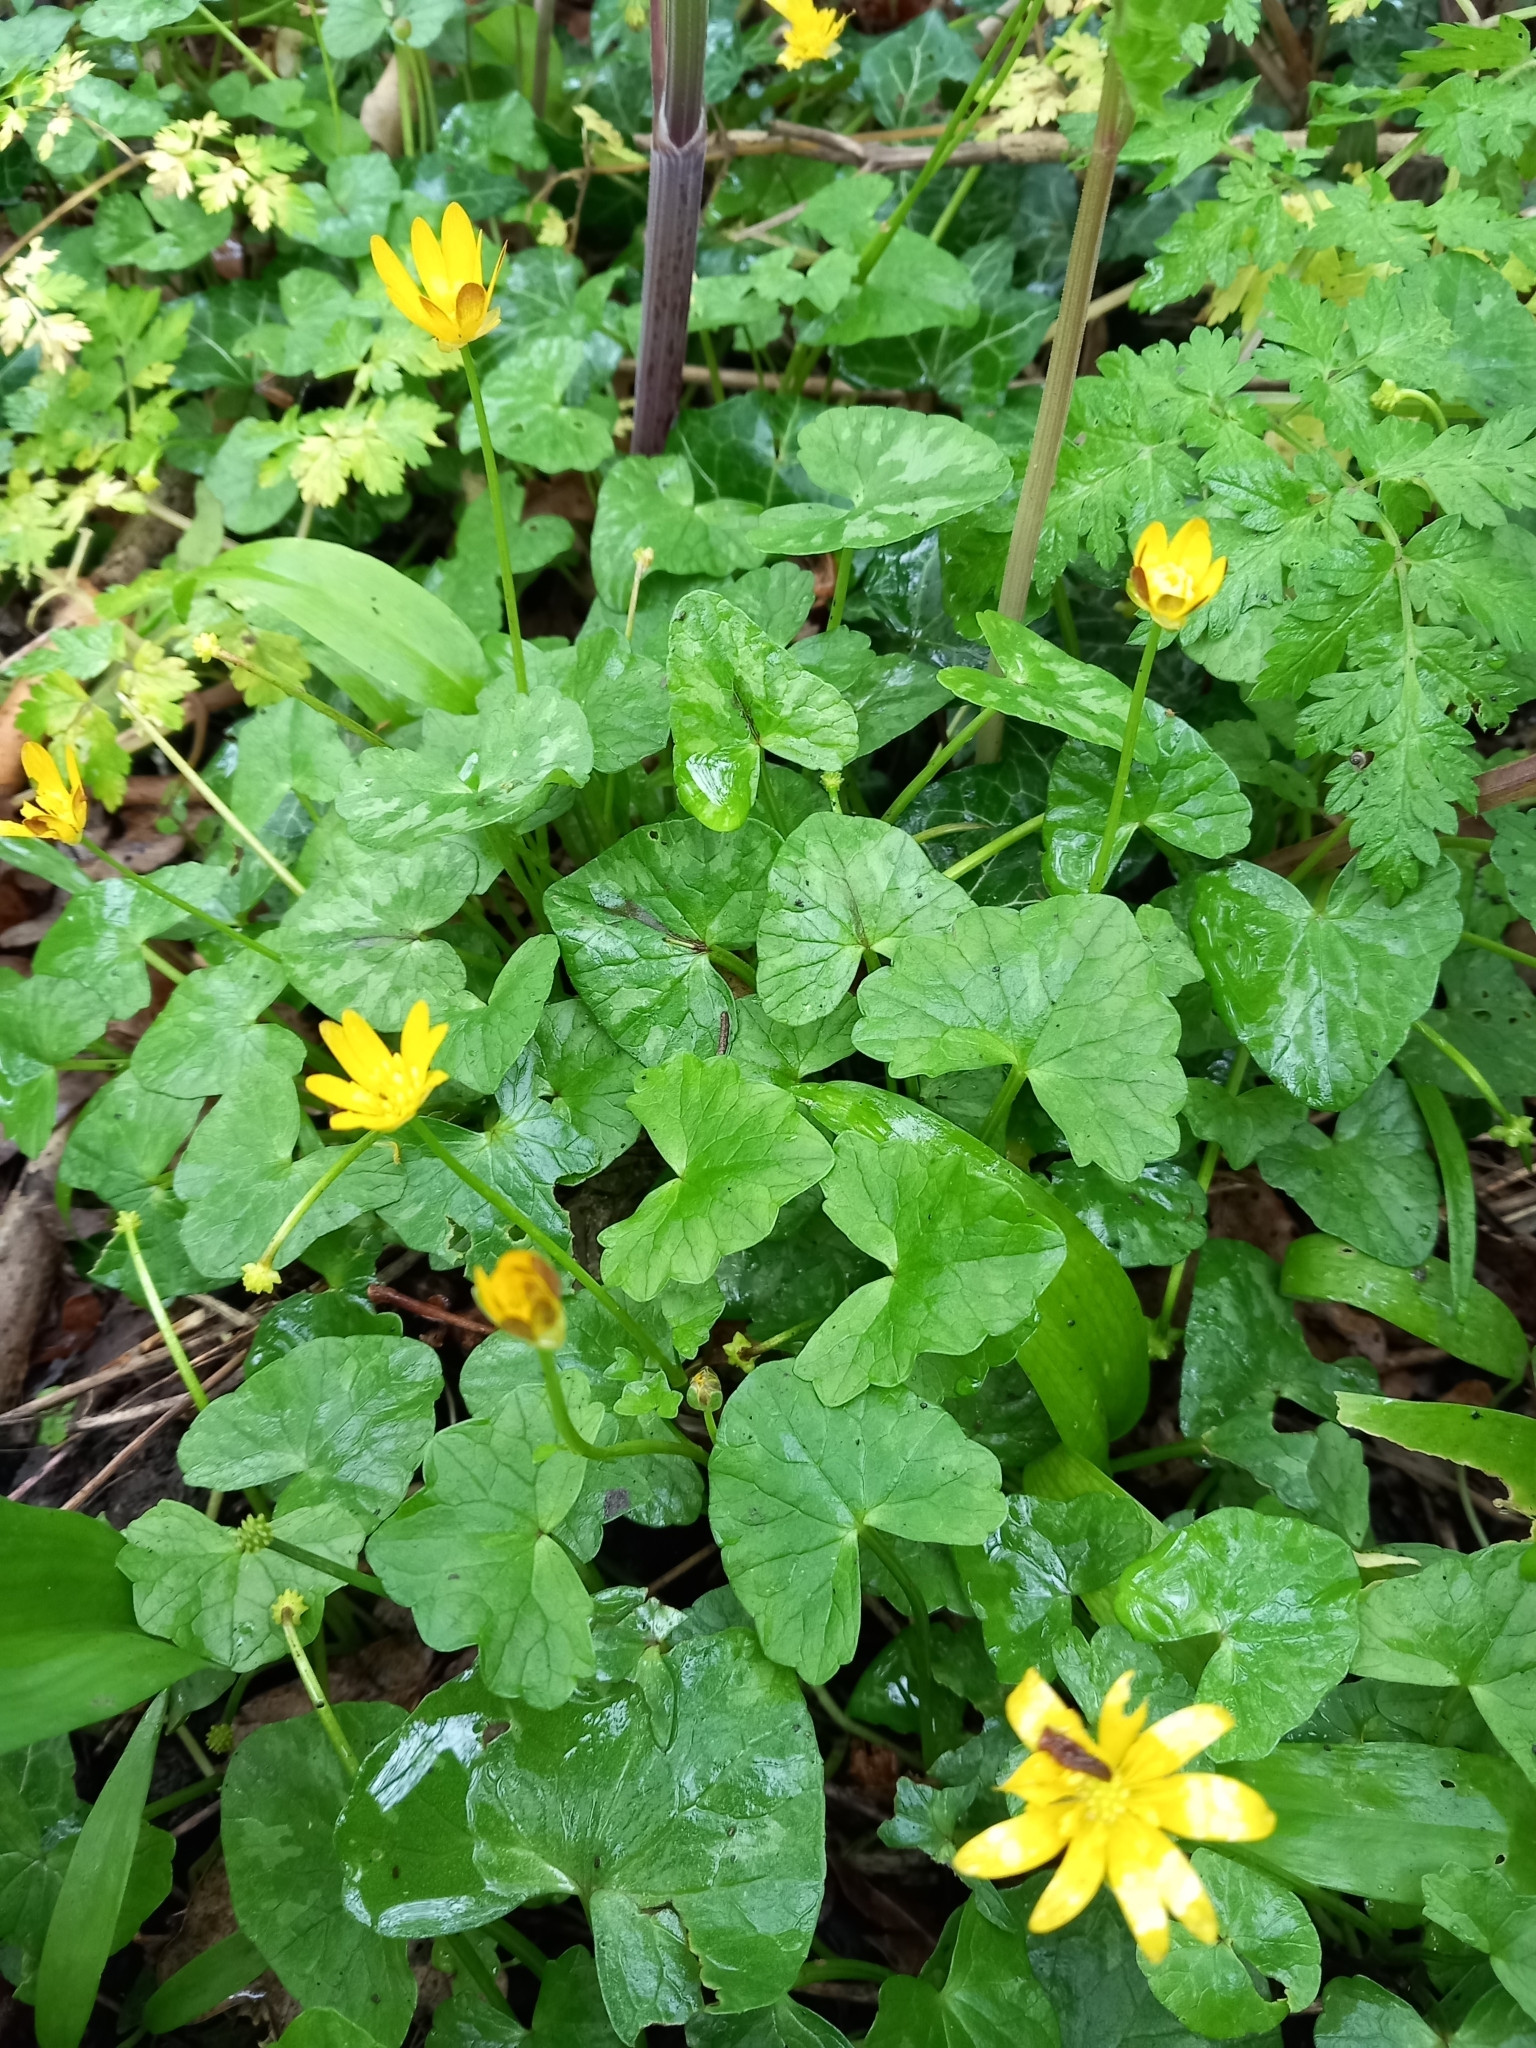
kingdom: Plantae
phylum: Tracheophyta
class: Magnoliopsida
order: Ranunculales
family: Ranunculaceae
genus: Ficaria
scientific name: Ficaria verna
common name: Lesser celandine
